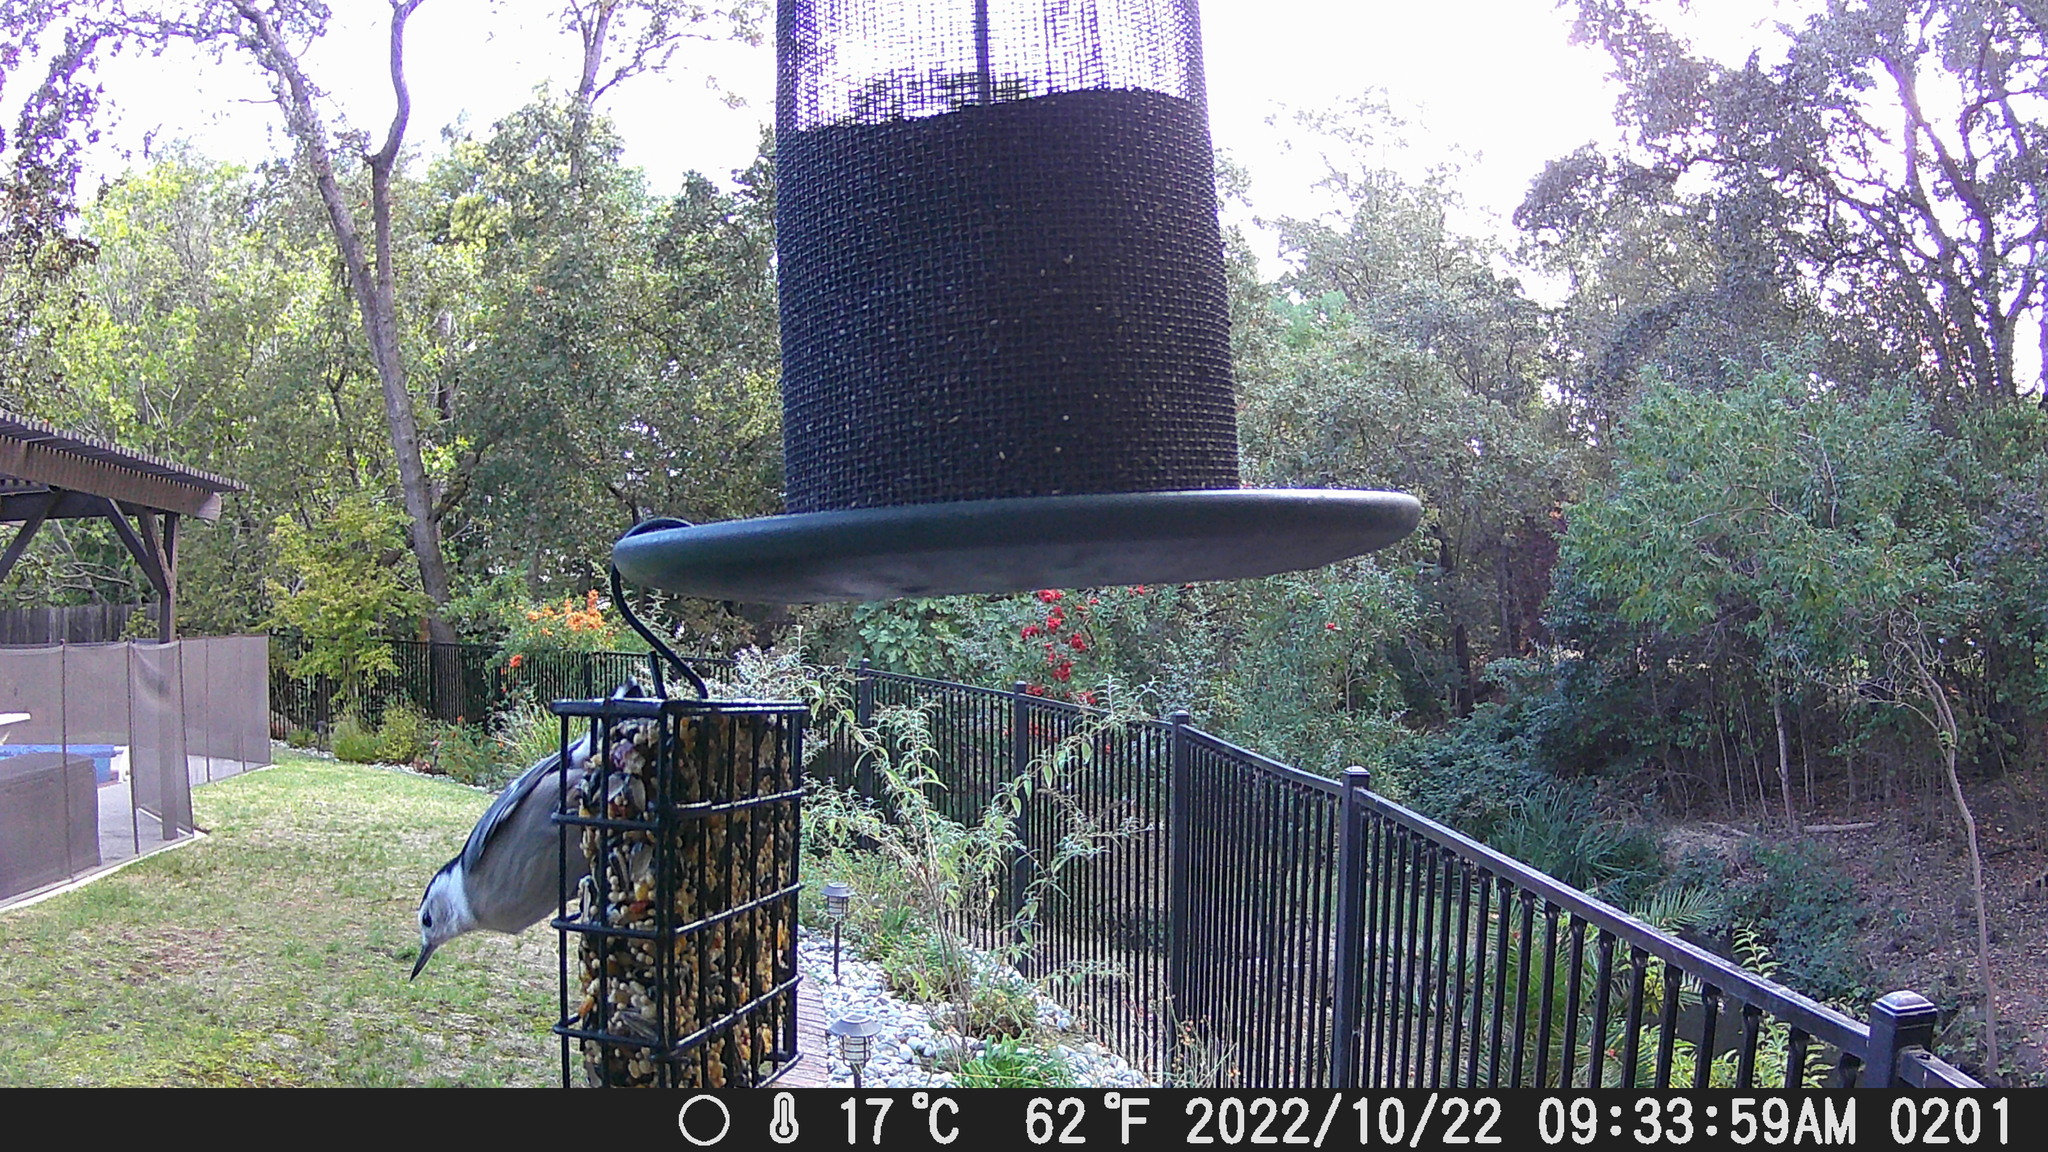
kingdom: Animalia
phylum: Chordata
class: Aves
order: Passeriformes
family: Sittidae
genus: Sitta
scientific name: Sitta carolinensis
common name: White-breasted nuthatch
